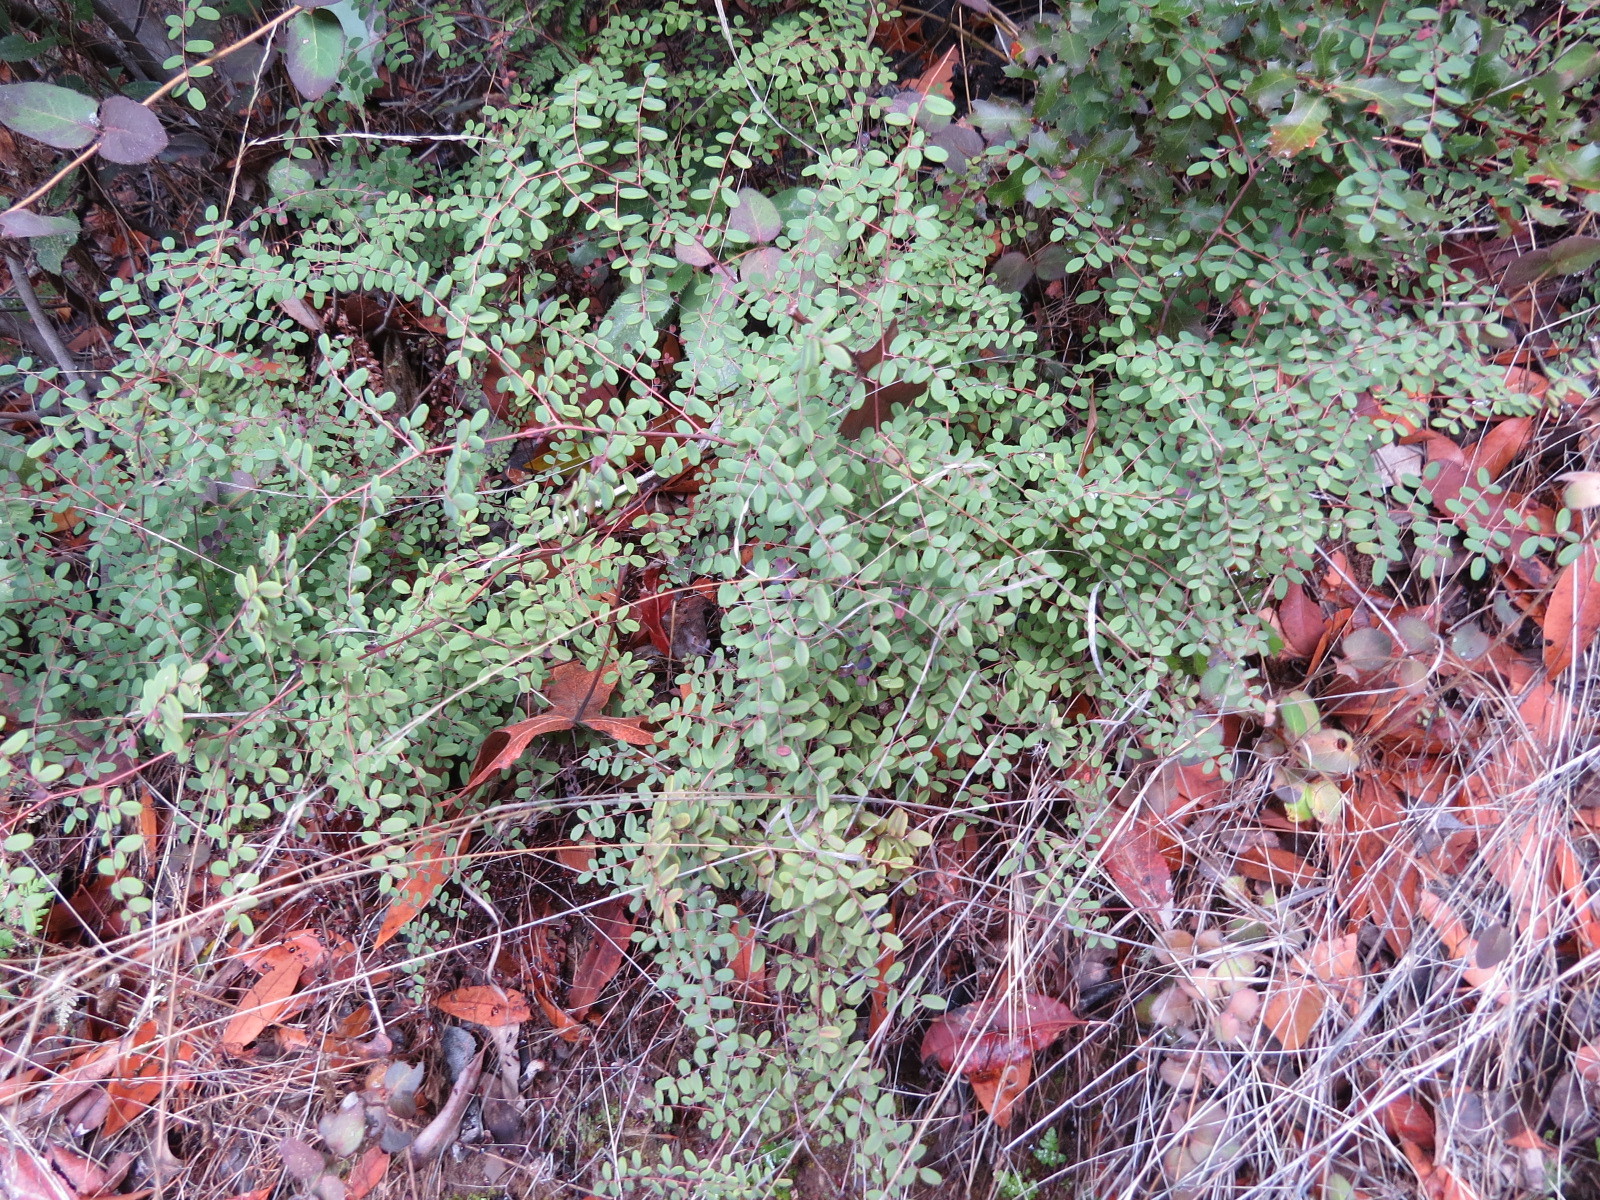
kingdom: Plantae
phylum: Tracheophyta
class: Polypodiopsida
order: Polypodiales
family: Pteridaceae
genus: Pellaea
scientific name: Pellaea andromedifolia
